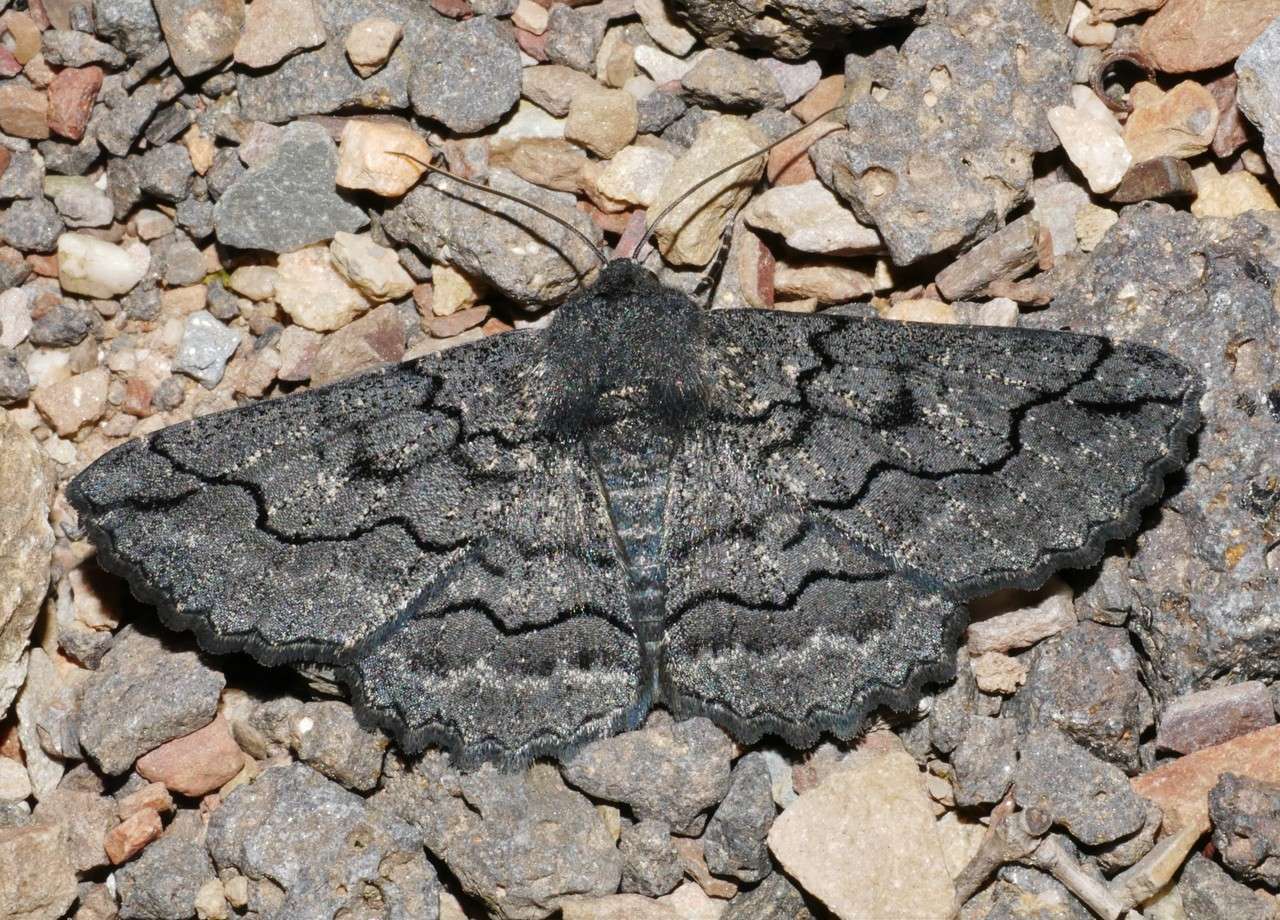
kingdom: Animalia
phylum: Arthropoda
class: Insecta
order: Lepidoptera
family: Geometridae
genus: Melanodes
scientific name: Melanodes anthracitaria
